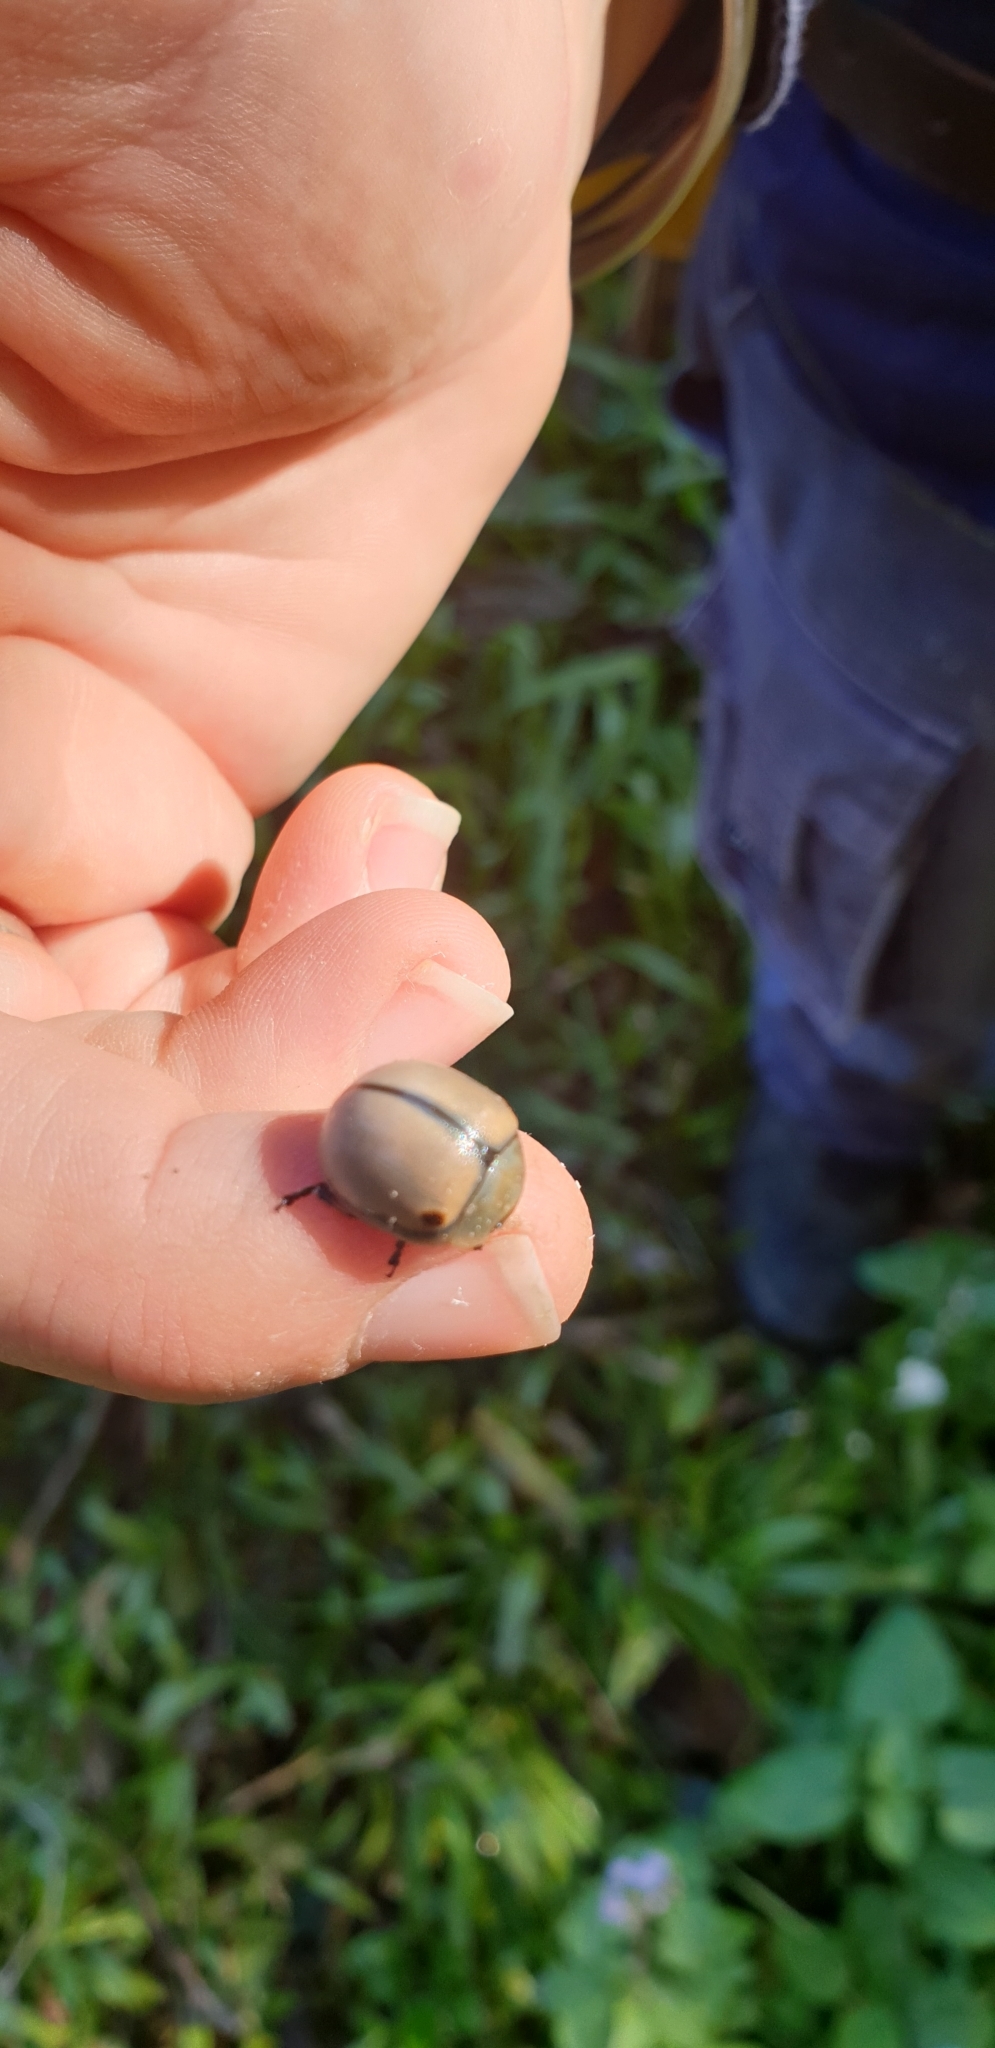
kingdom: Animalia
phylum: Arthropoda
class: Insecta
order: Coleoptera
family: Chrysomelidae
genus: Dicranosterna
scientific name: Dicranosterna
